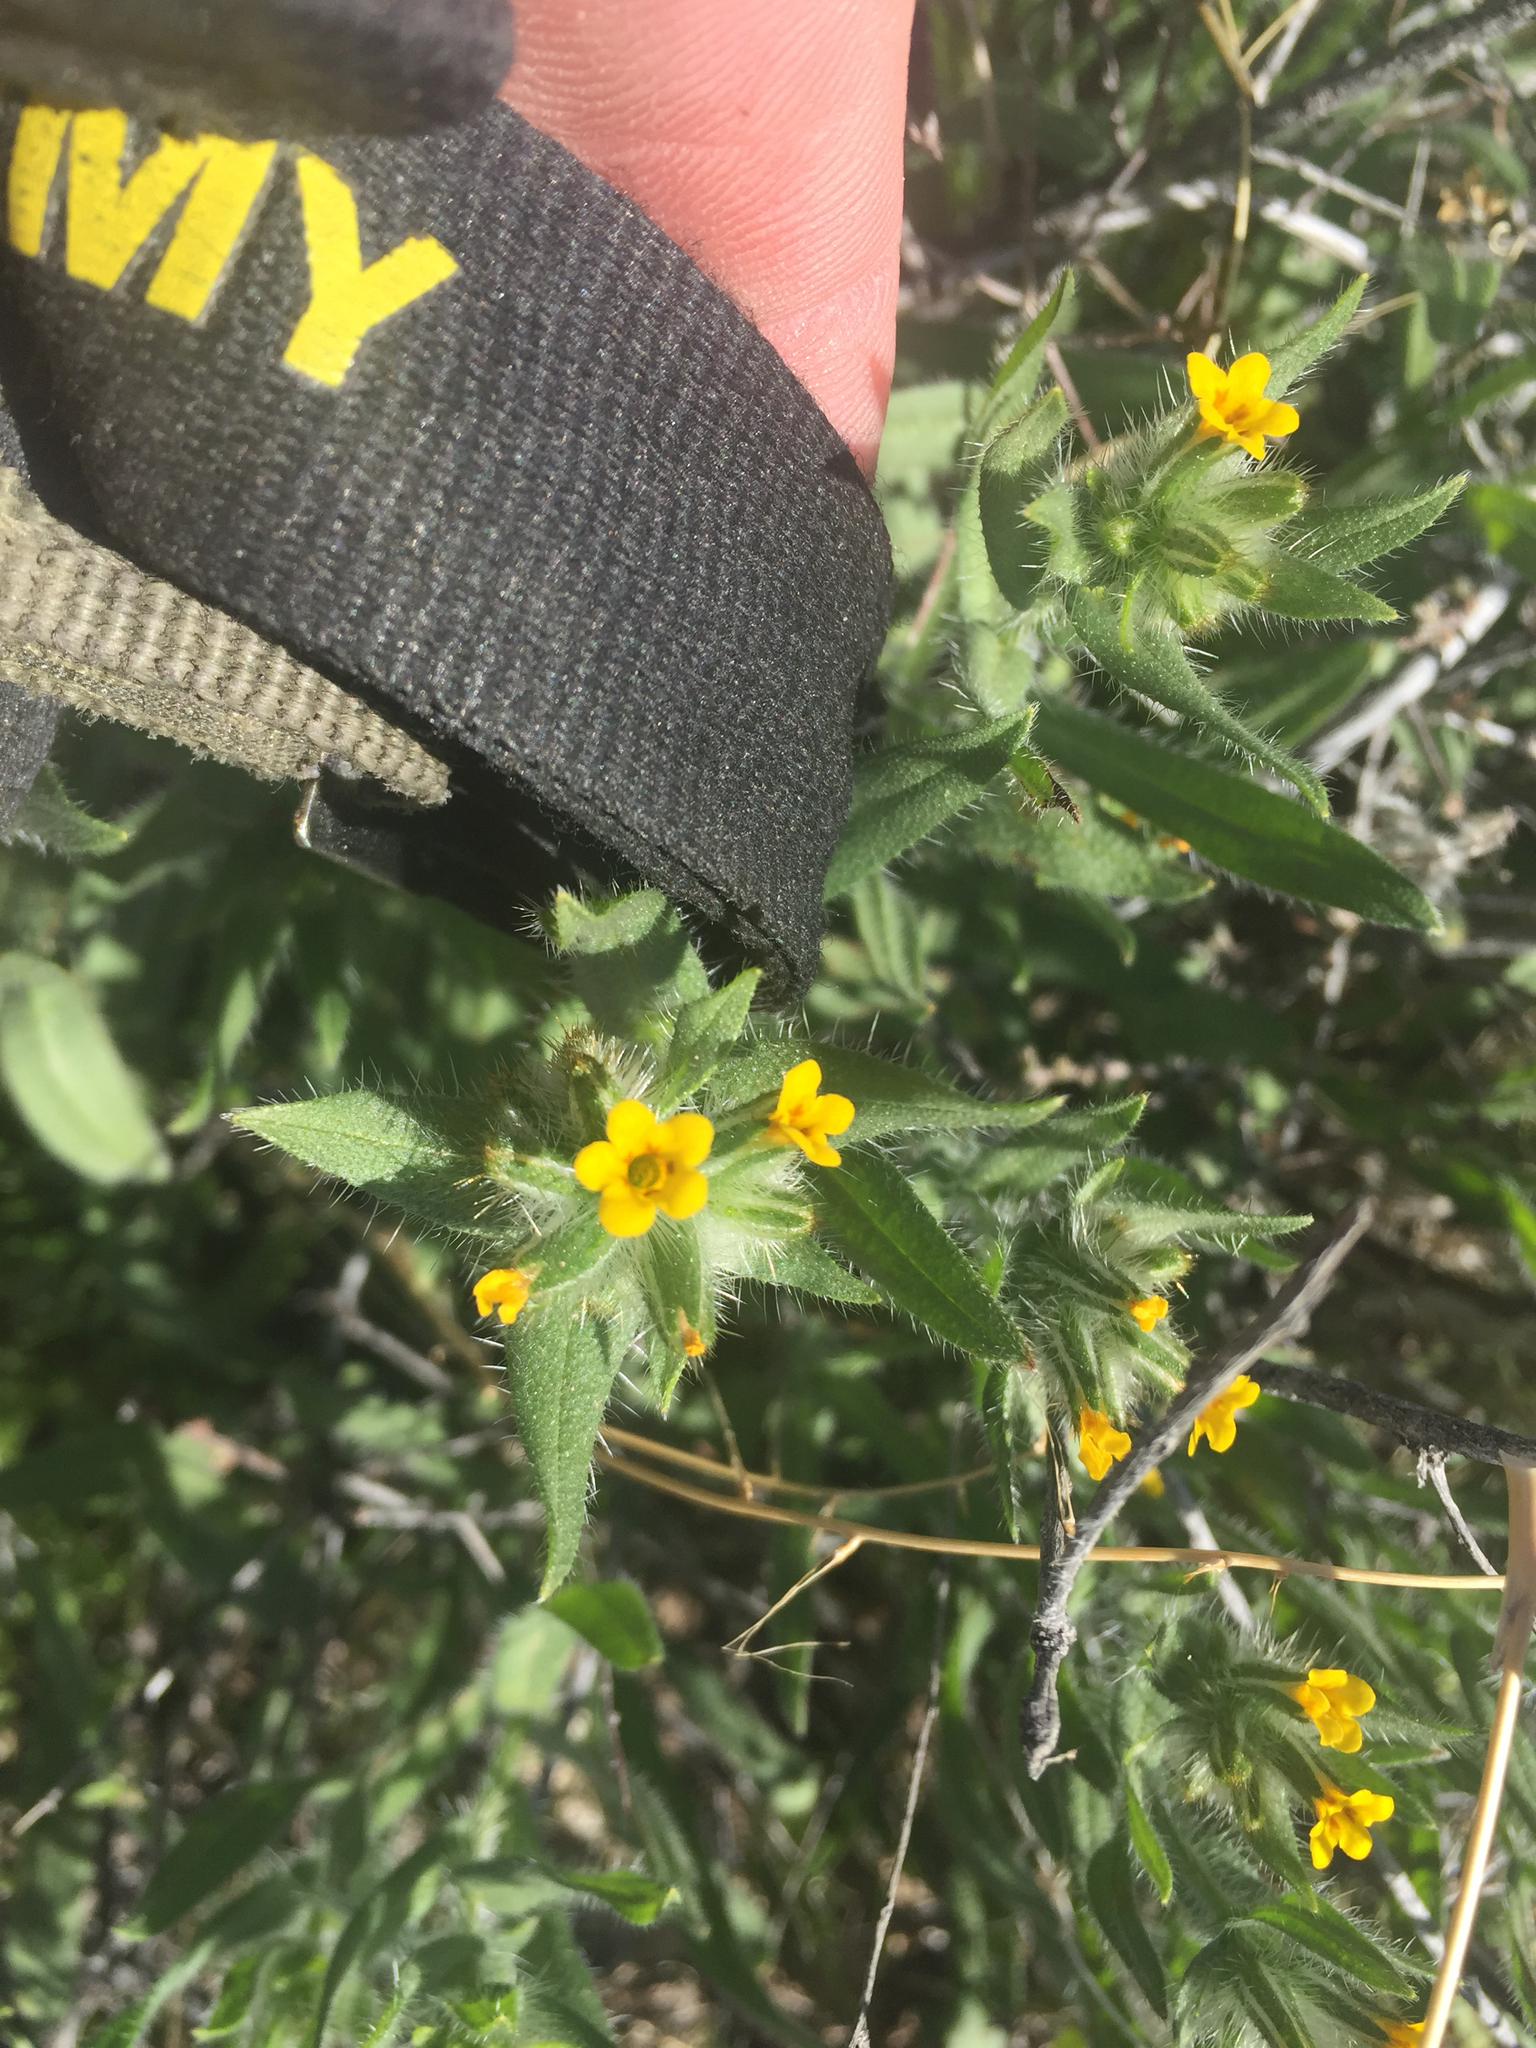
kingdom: Plantae
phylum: Tracheophyta
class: Magnoliopsida
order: Boraginales
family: Boraginaceae
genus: Amsinckia
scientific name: Amsinckia tessellata
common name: Tessellate fiddleneck
